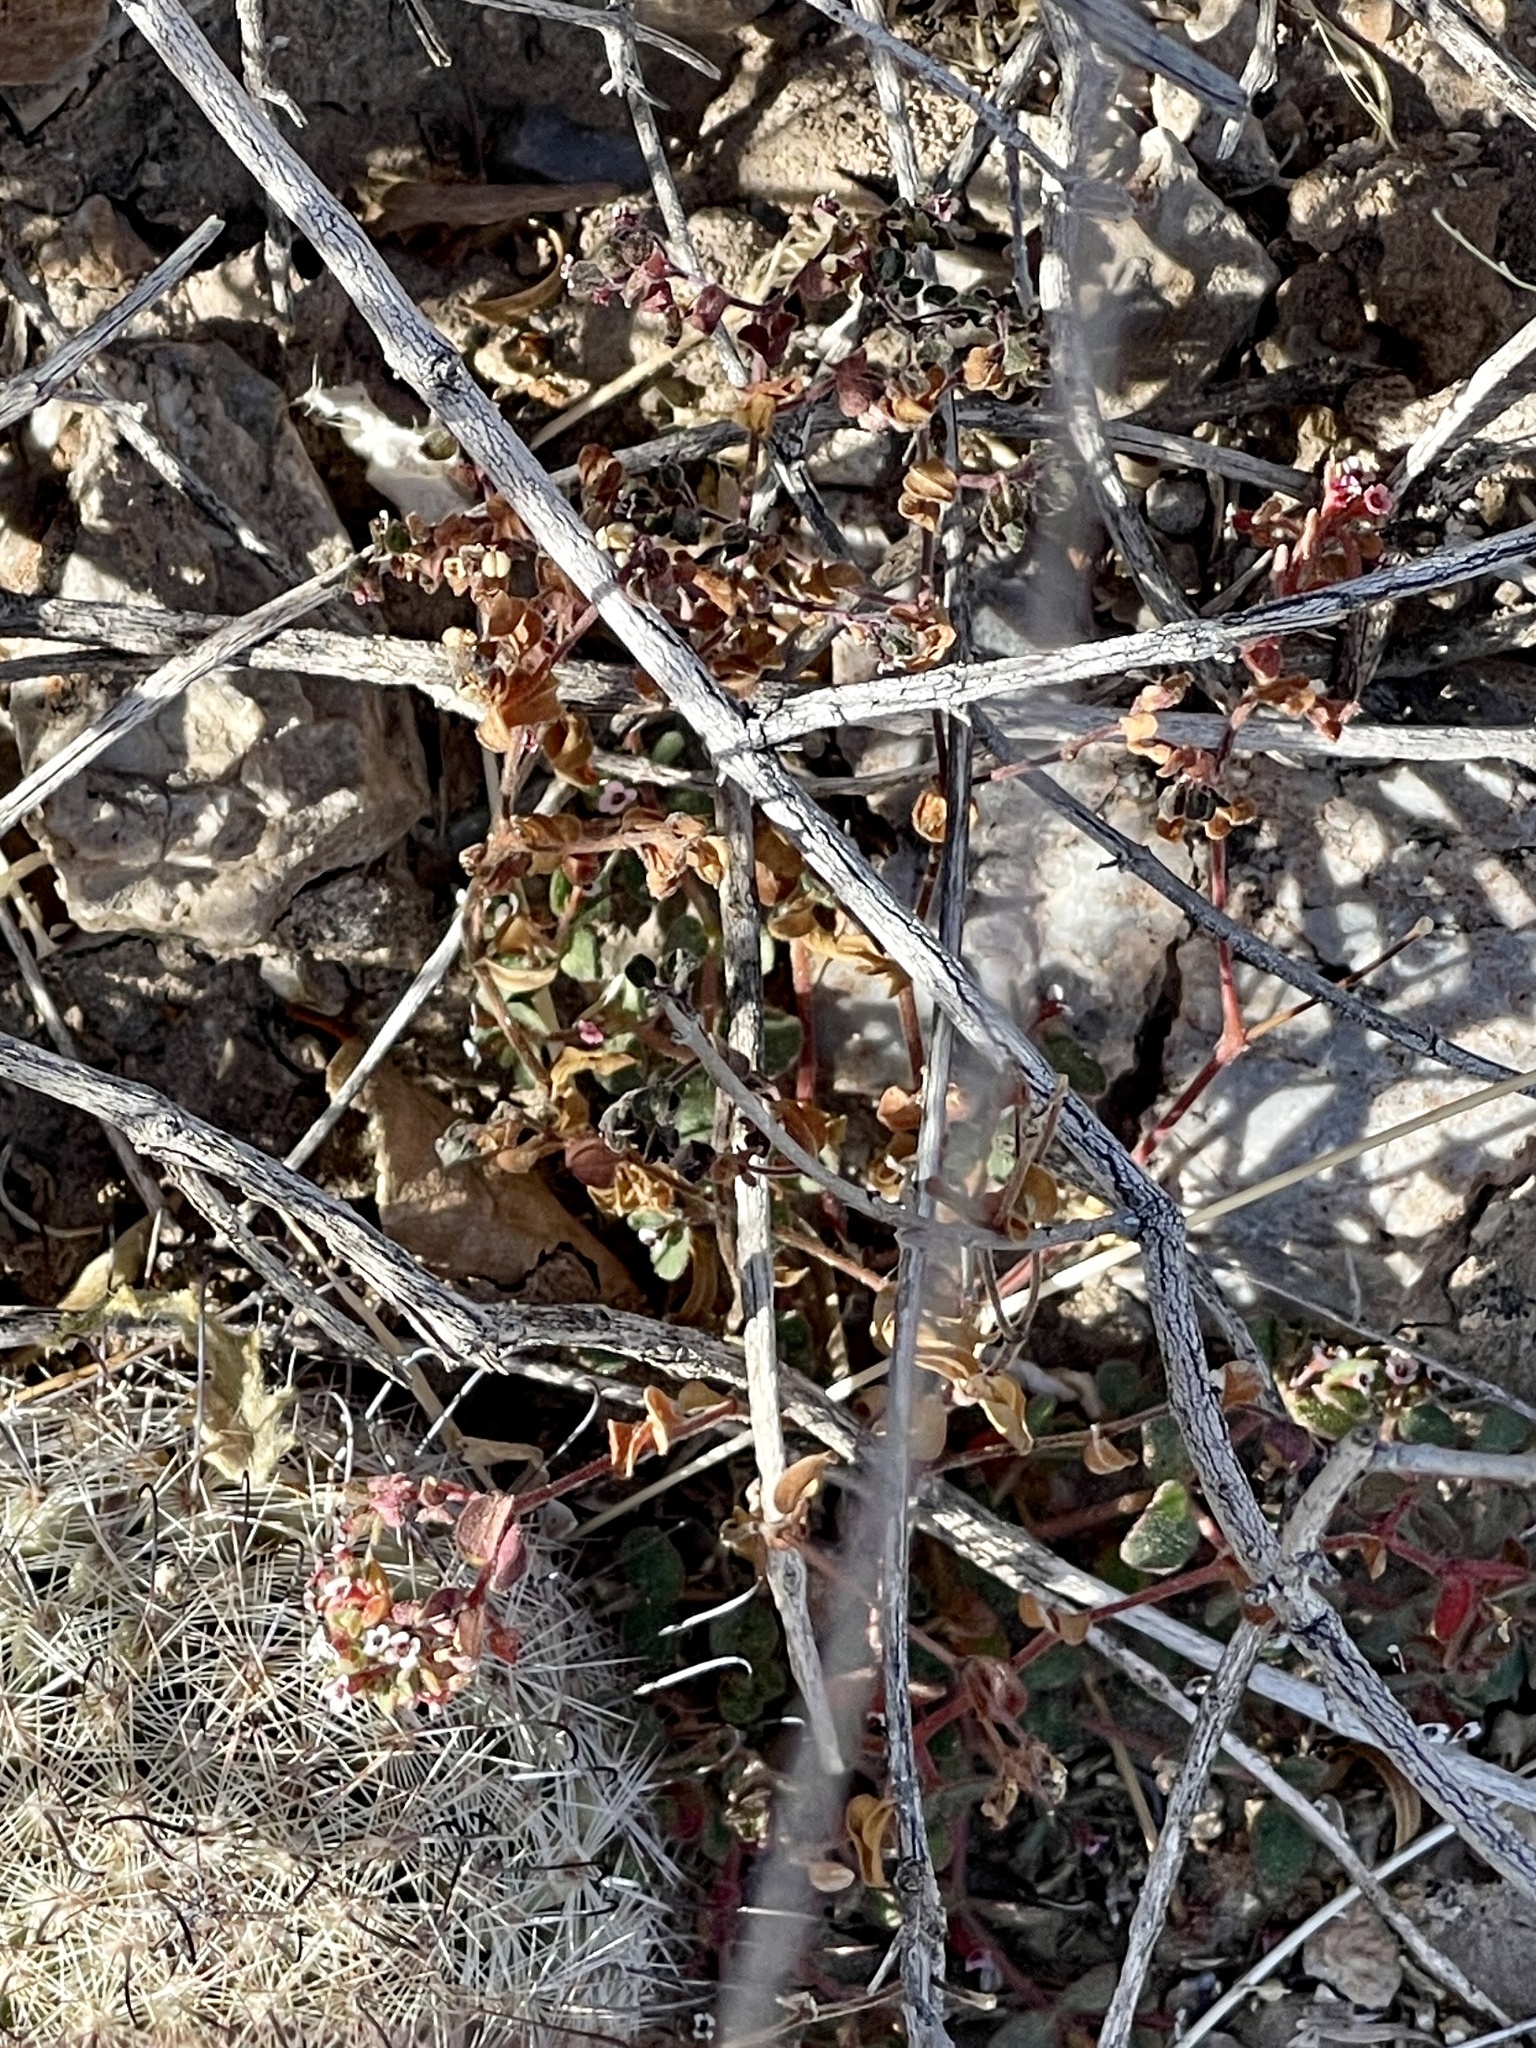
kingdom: Plantae
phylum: Tracheophyta
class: Magnoliopsida
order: Malpighiales
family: Euphorbiaceae
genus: Euphorbia
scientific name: Euphorbia arizonica
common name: Arizona spurge
